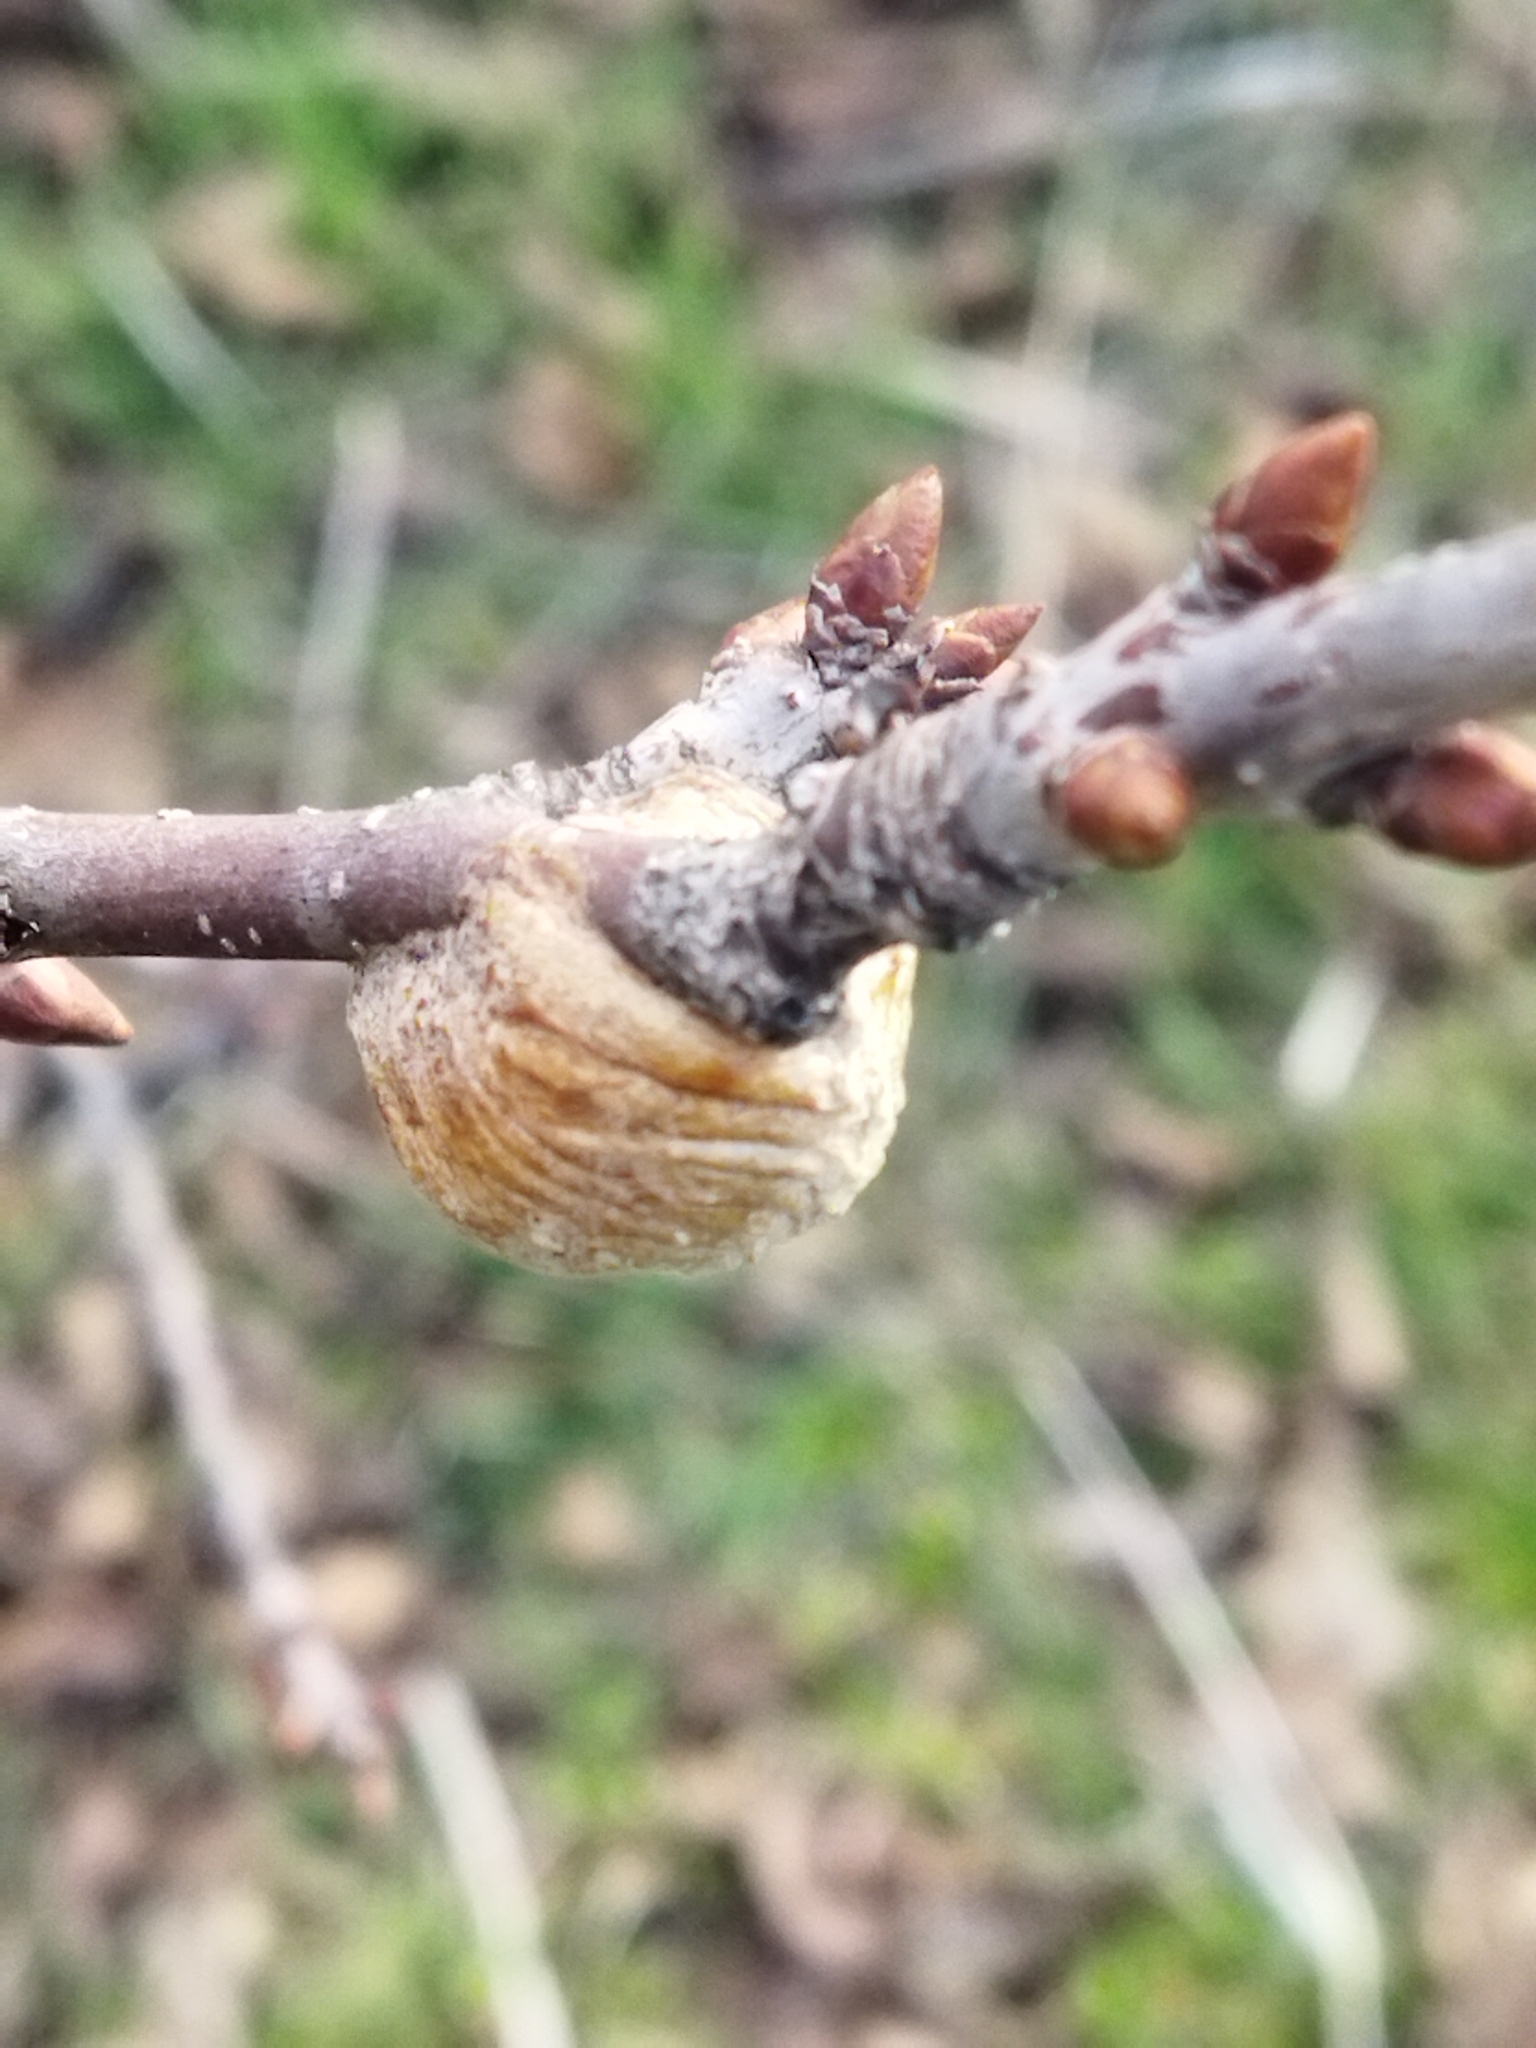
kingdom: Animalia
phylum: Arthropoda
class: Insecta
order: Mantodea
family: Mantidae
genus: Hierodula
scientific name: Hierodula transcaucasica
